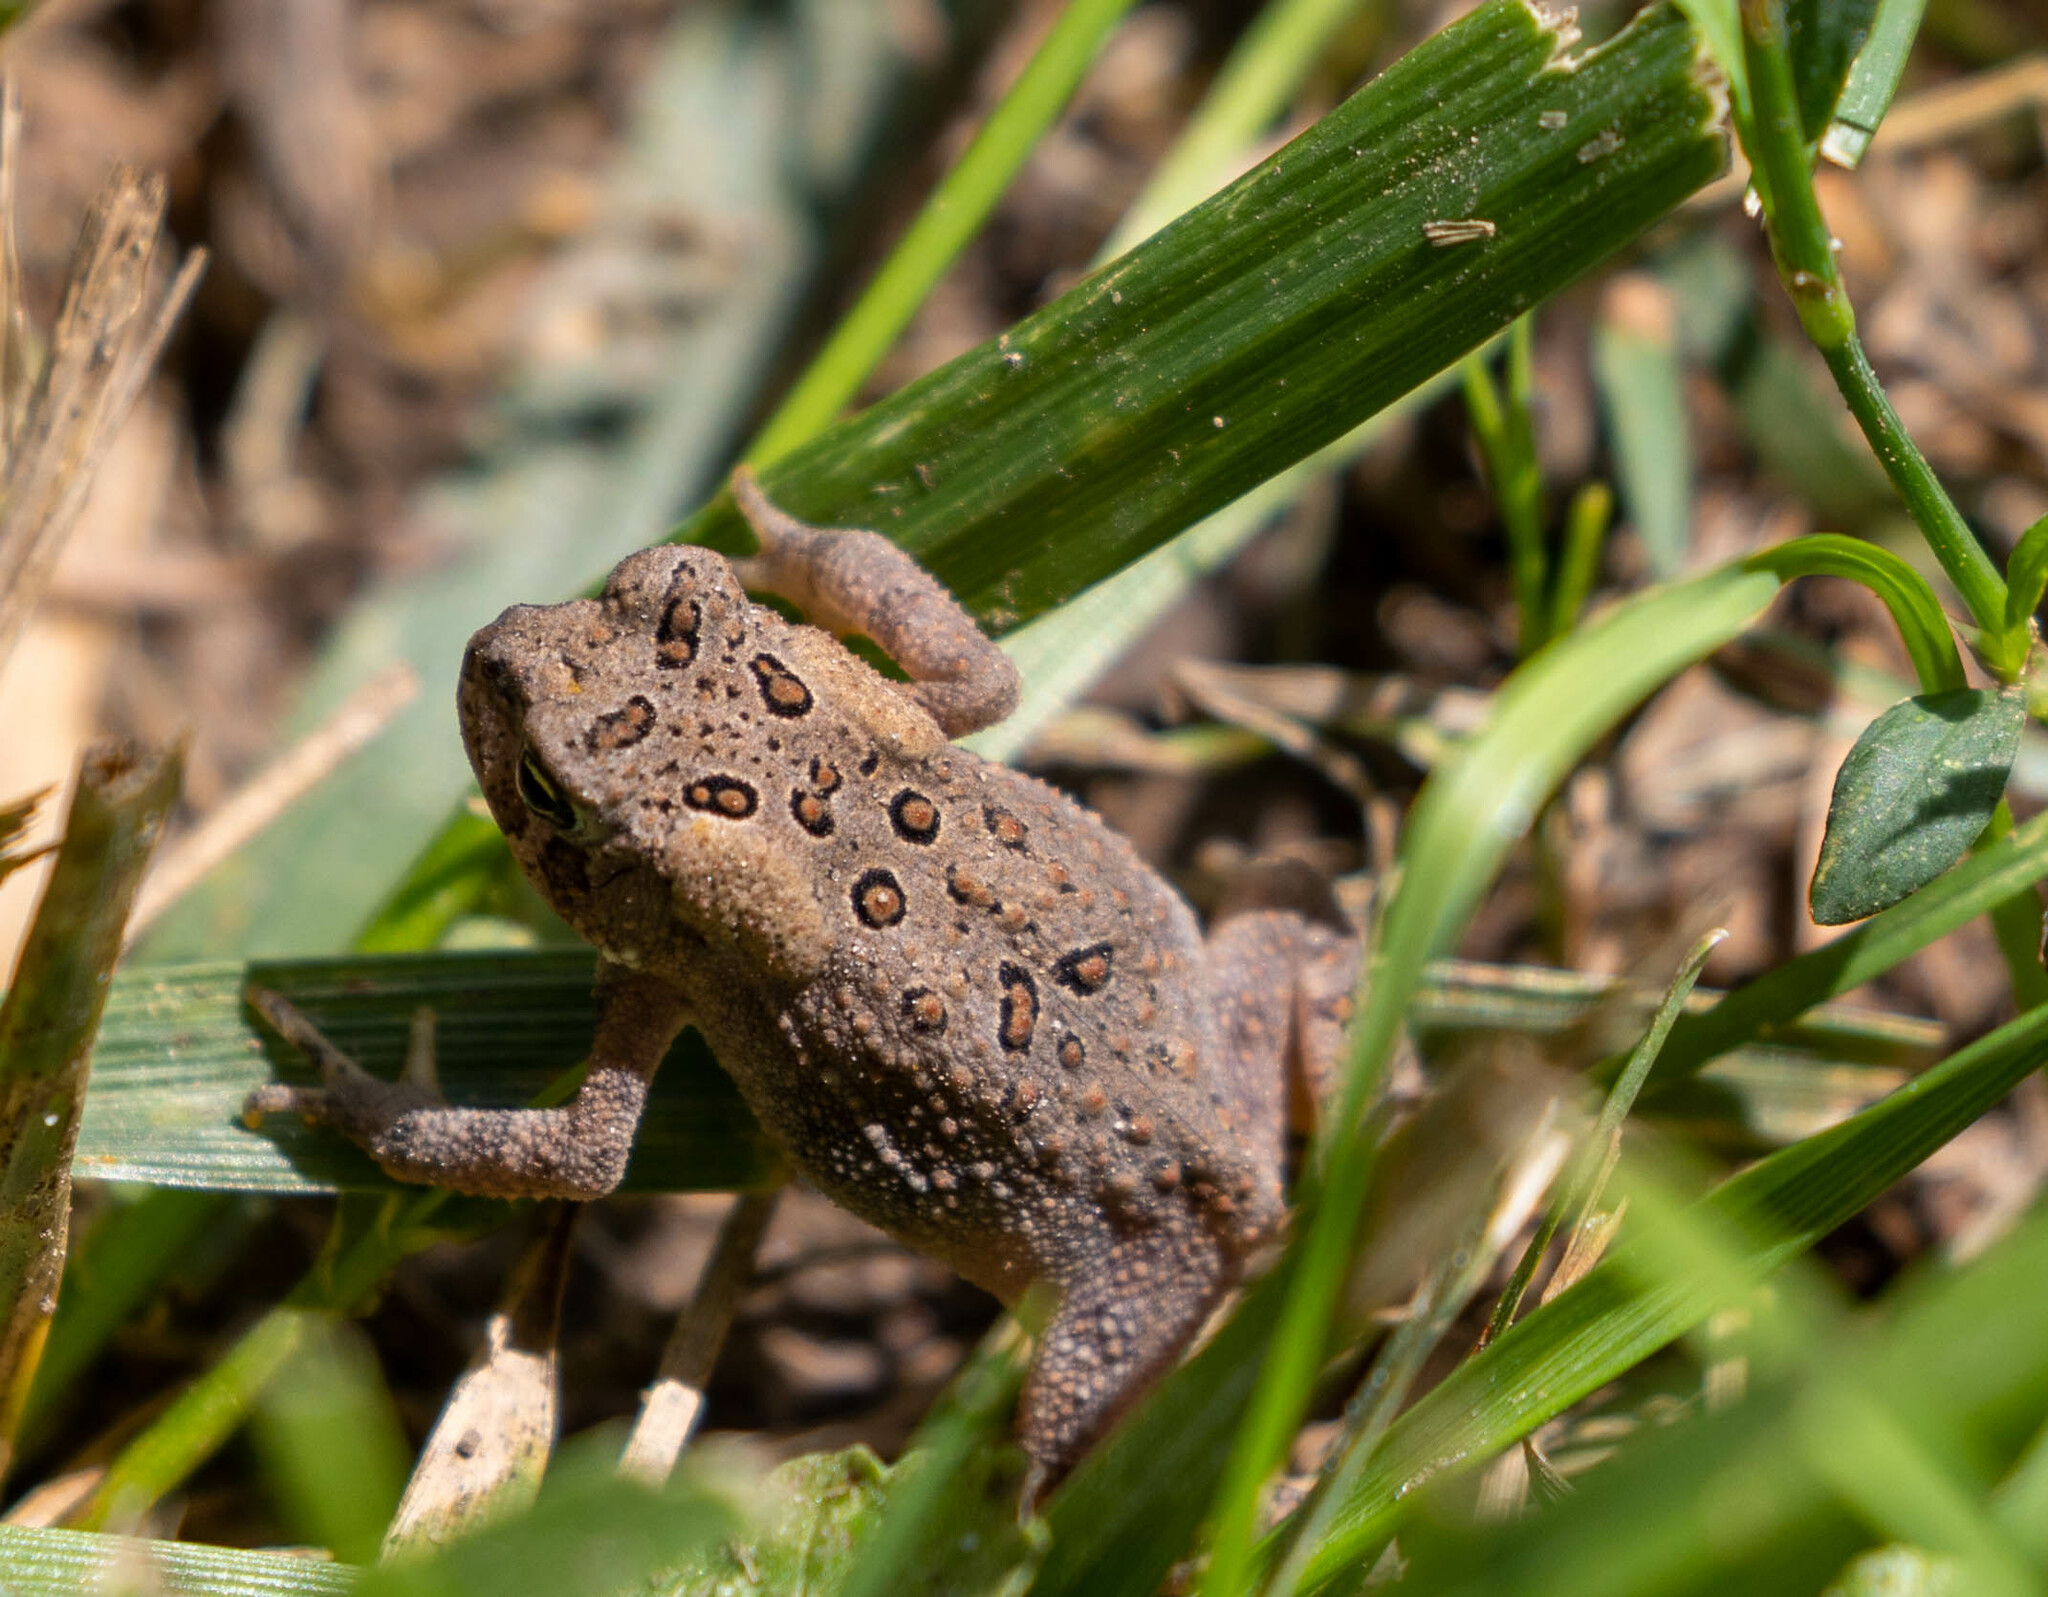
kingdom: Animalia
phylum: Chordata
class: Amphibia
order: Anura
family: Bufonidae
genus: Anaxyrus
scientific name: Anaxyrus americanus
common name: American toad
